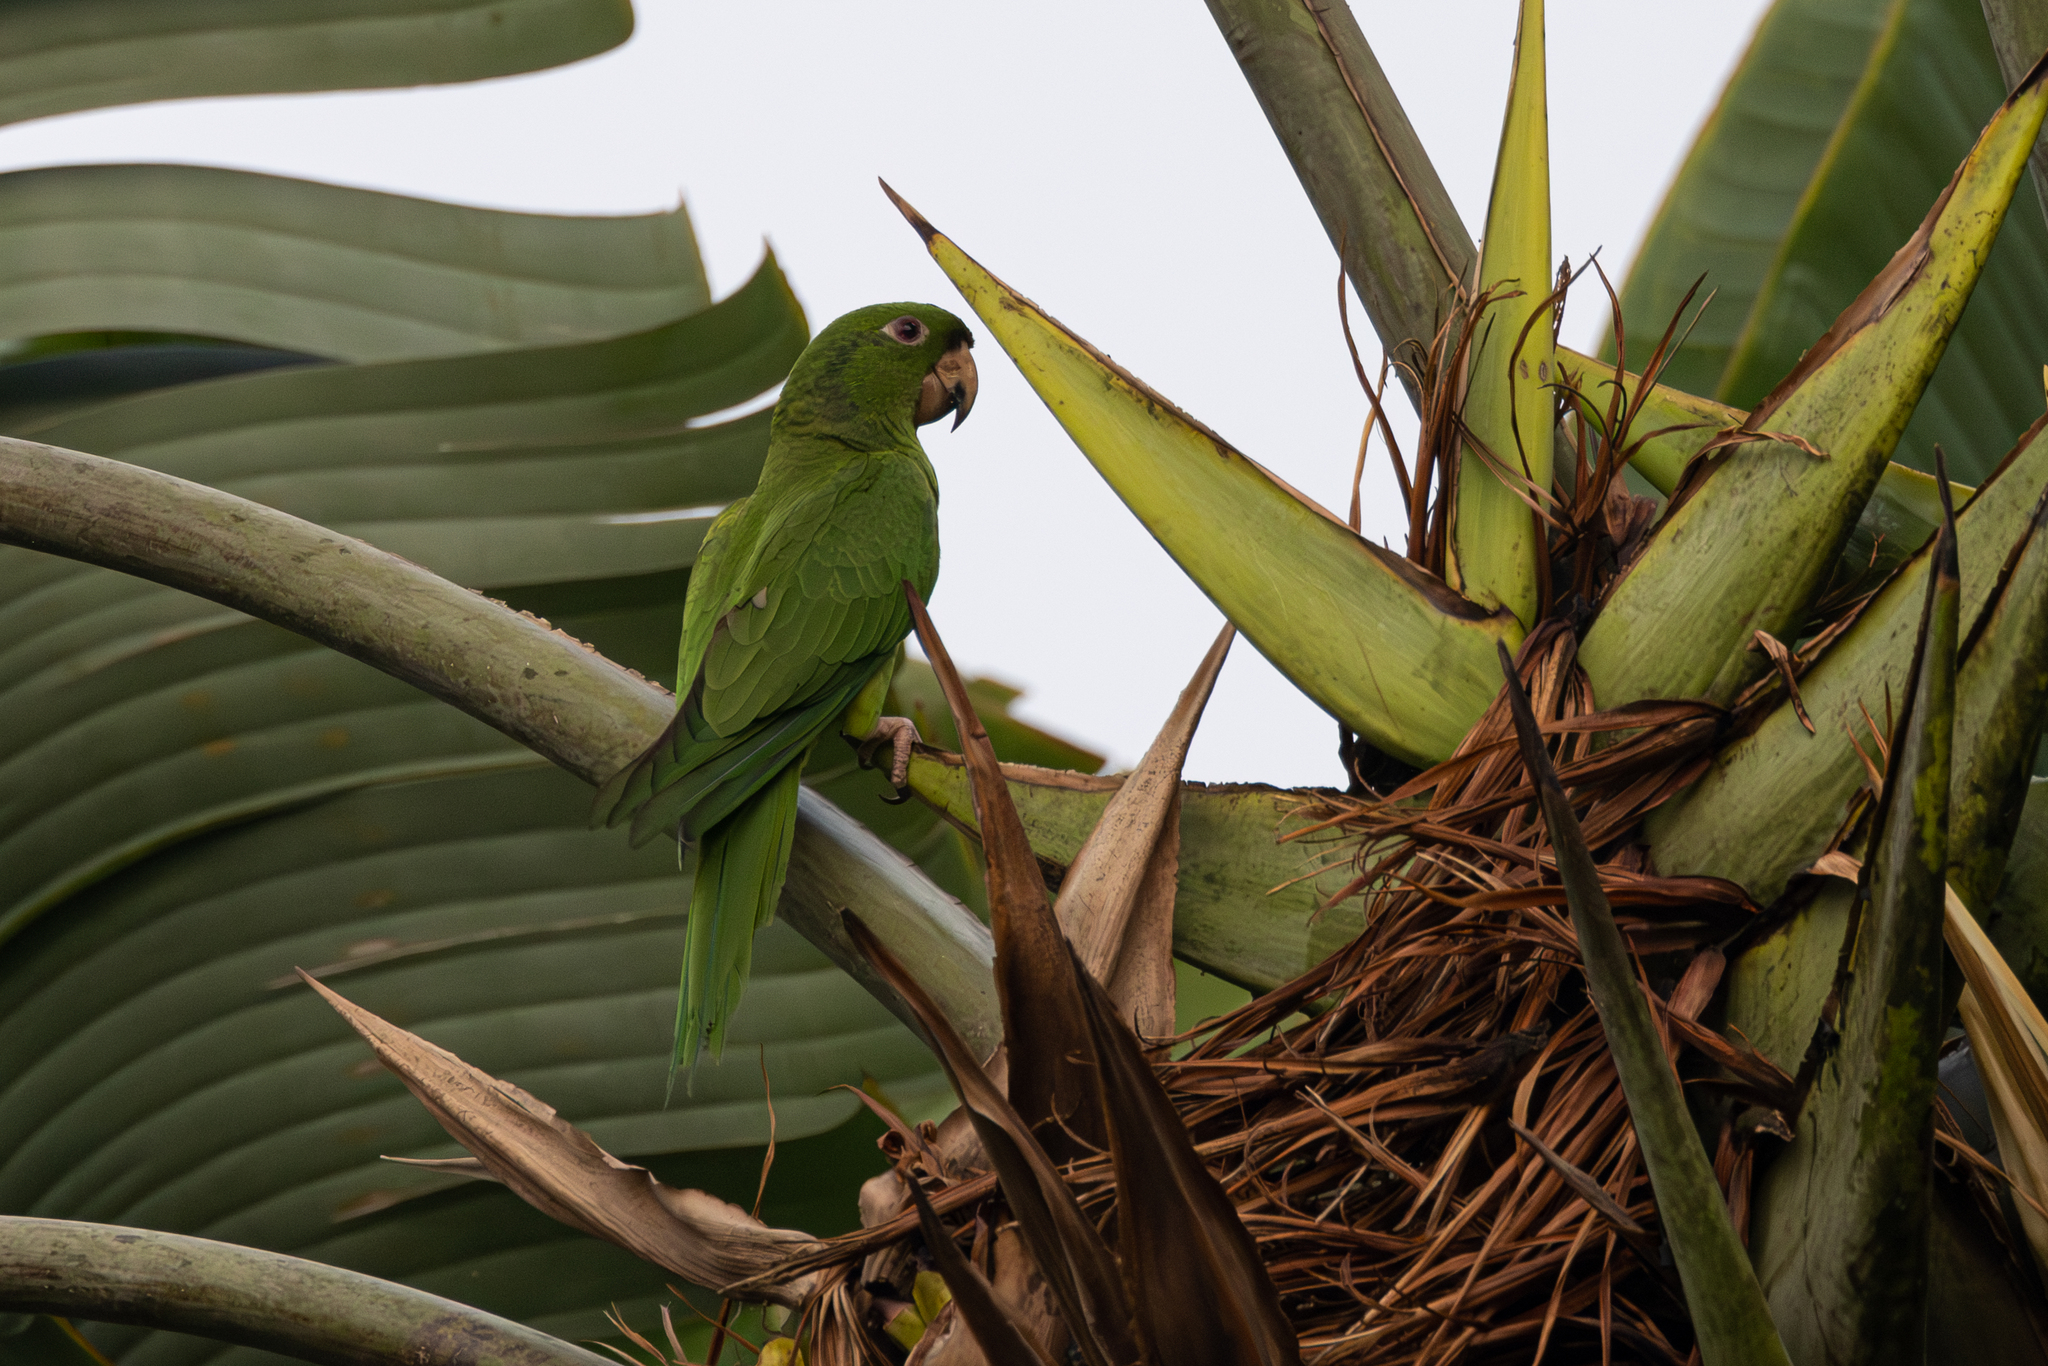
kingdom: Animalia
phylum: Chordata
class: Aves
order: Psittaciformes
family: Psittacidae
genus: Aratinga
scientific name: Aratinga strenua
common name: Pacific parakeet
